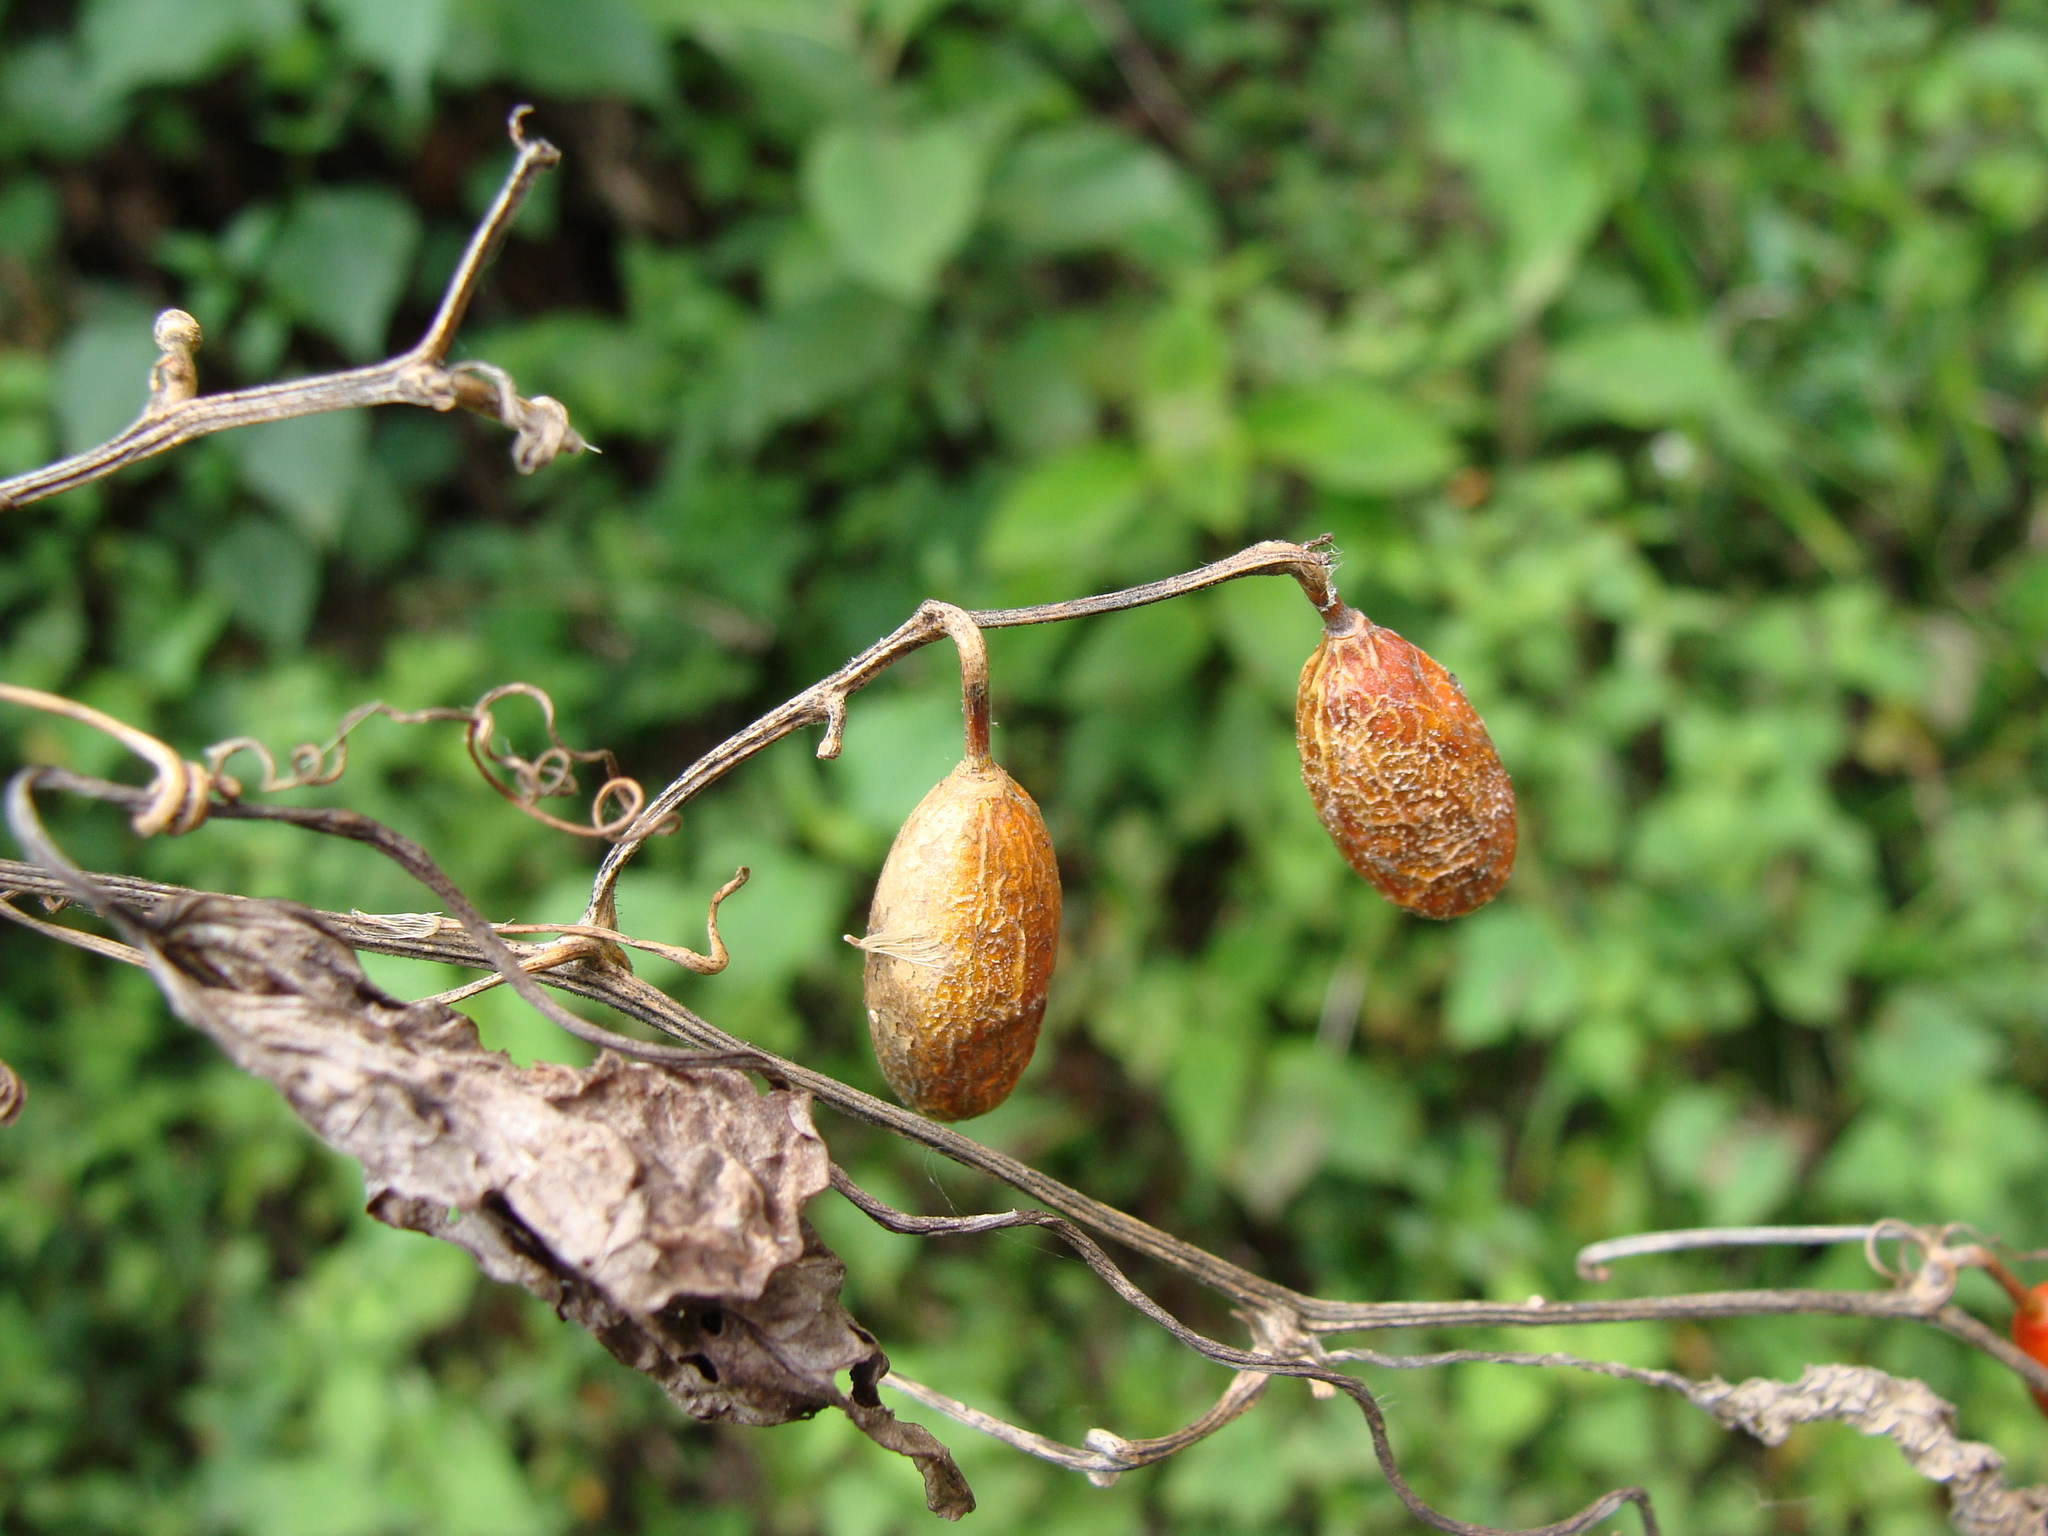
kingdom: Plantae
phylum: Tracheophyta
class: Magnoliopsida
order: Cucurbitales
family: Cucurbitaceae
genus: Cayaponia
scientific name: Cayaponia racemosa
